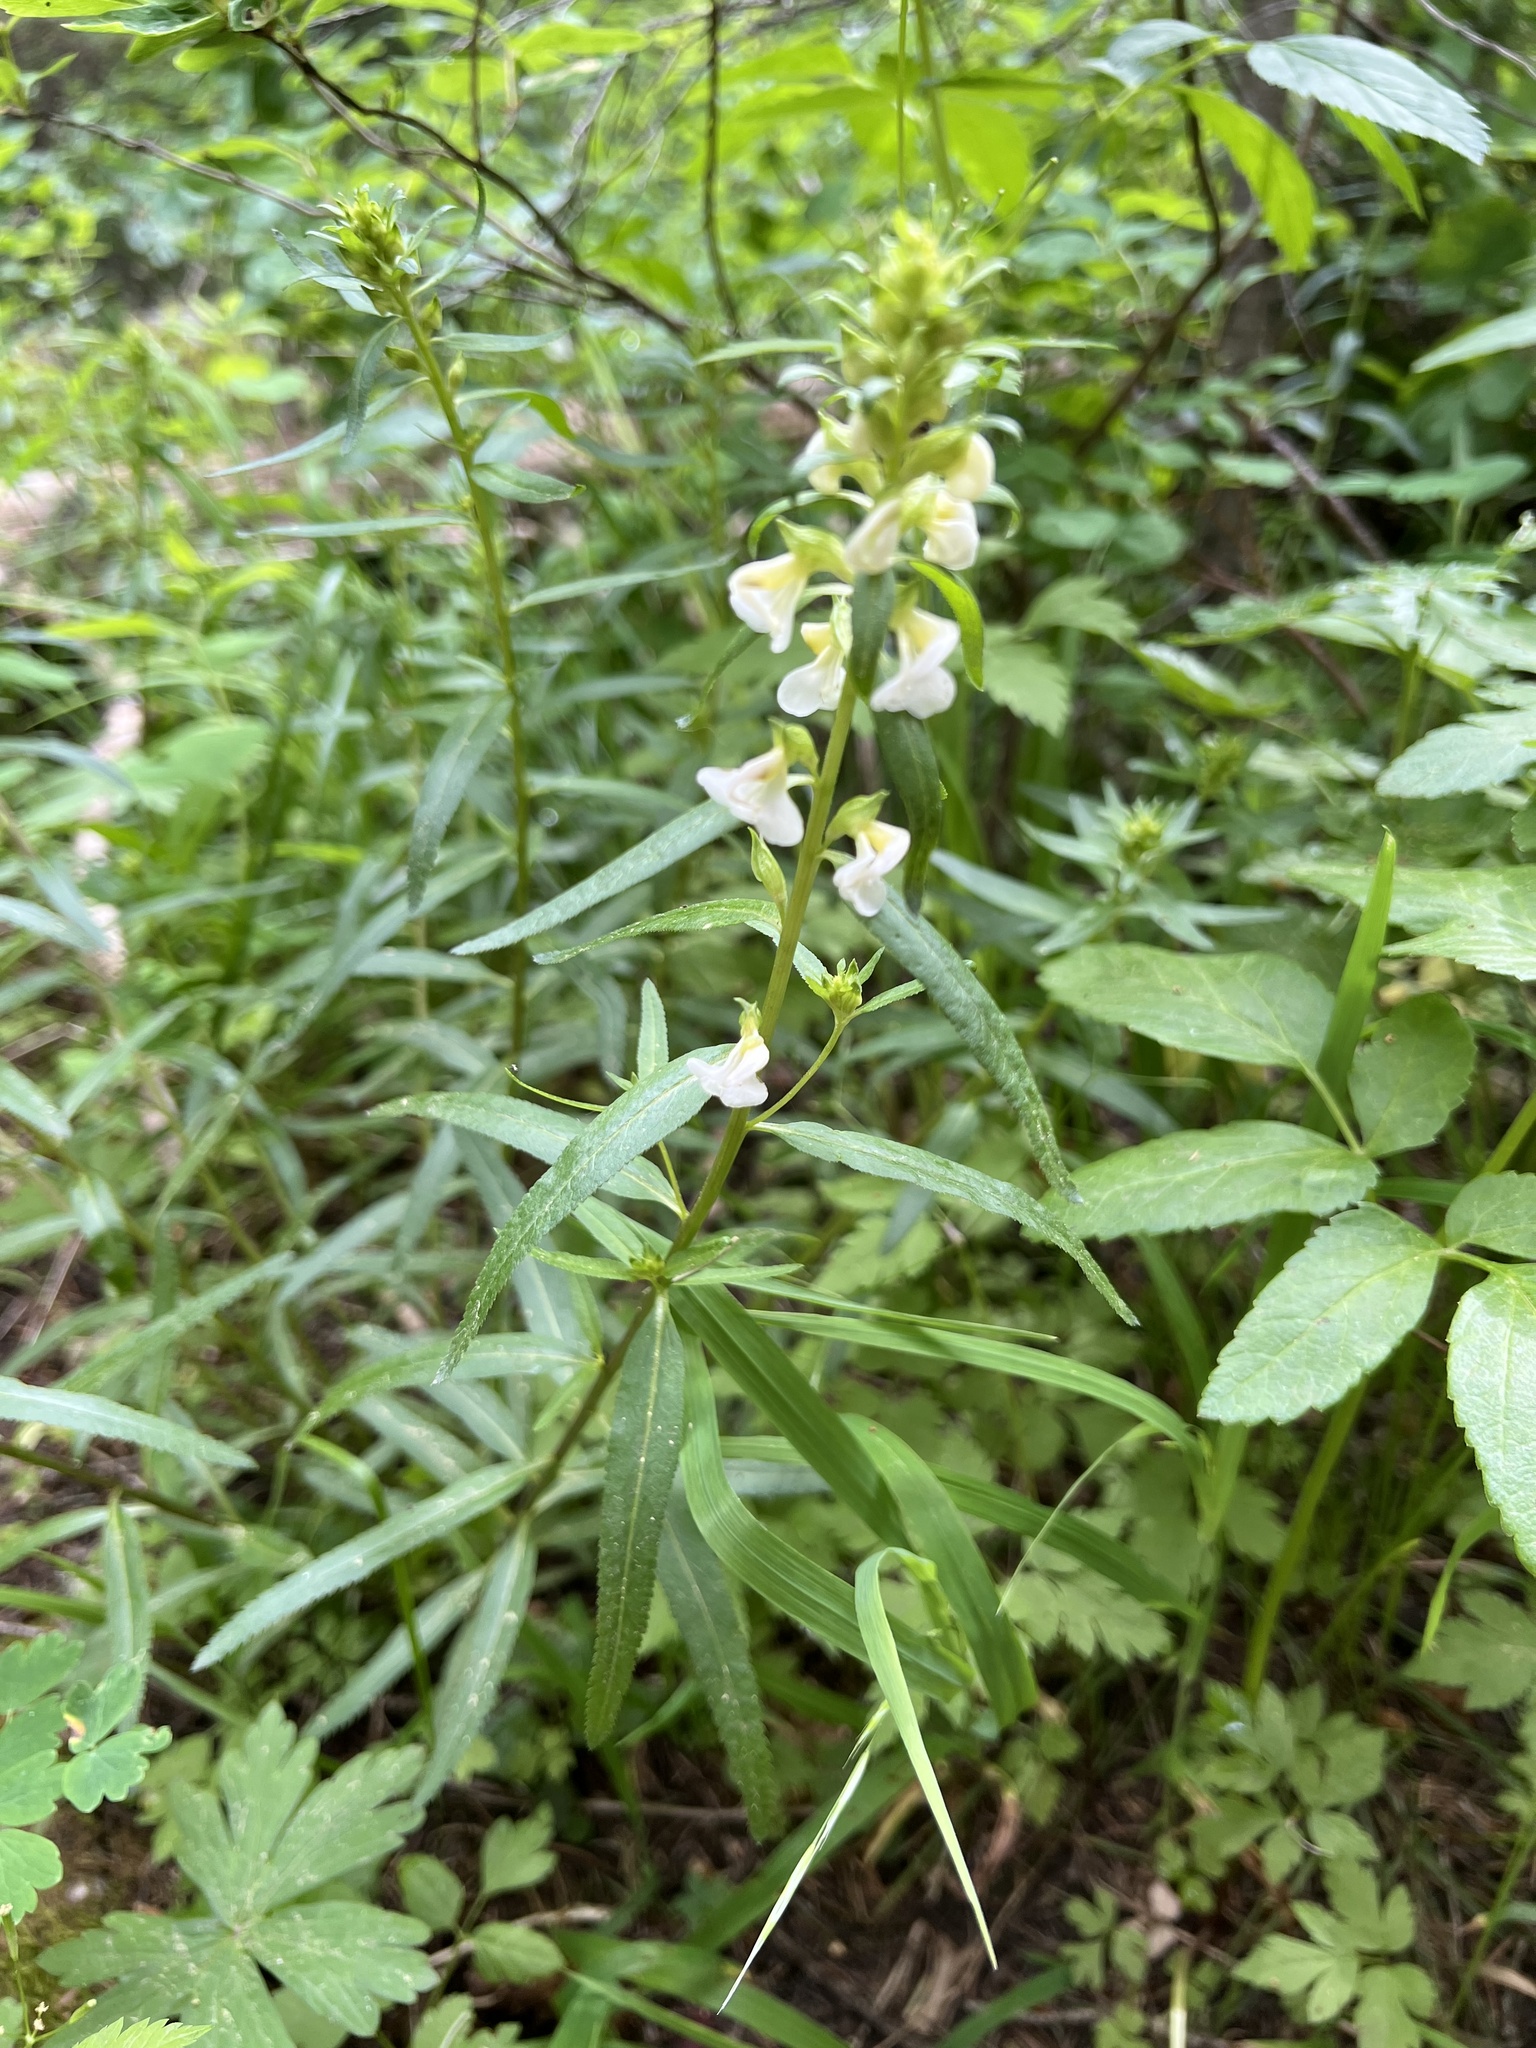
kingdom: Plantae
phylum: Tracheophyta
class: Magnoliopsida
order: Lamiales
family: Orobanchaceae
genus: Pedicularis
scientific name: Pedicularis racemosa
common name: Leafy lousewort
